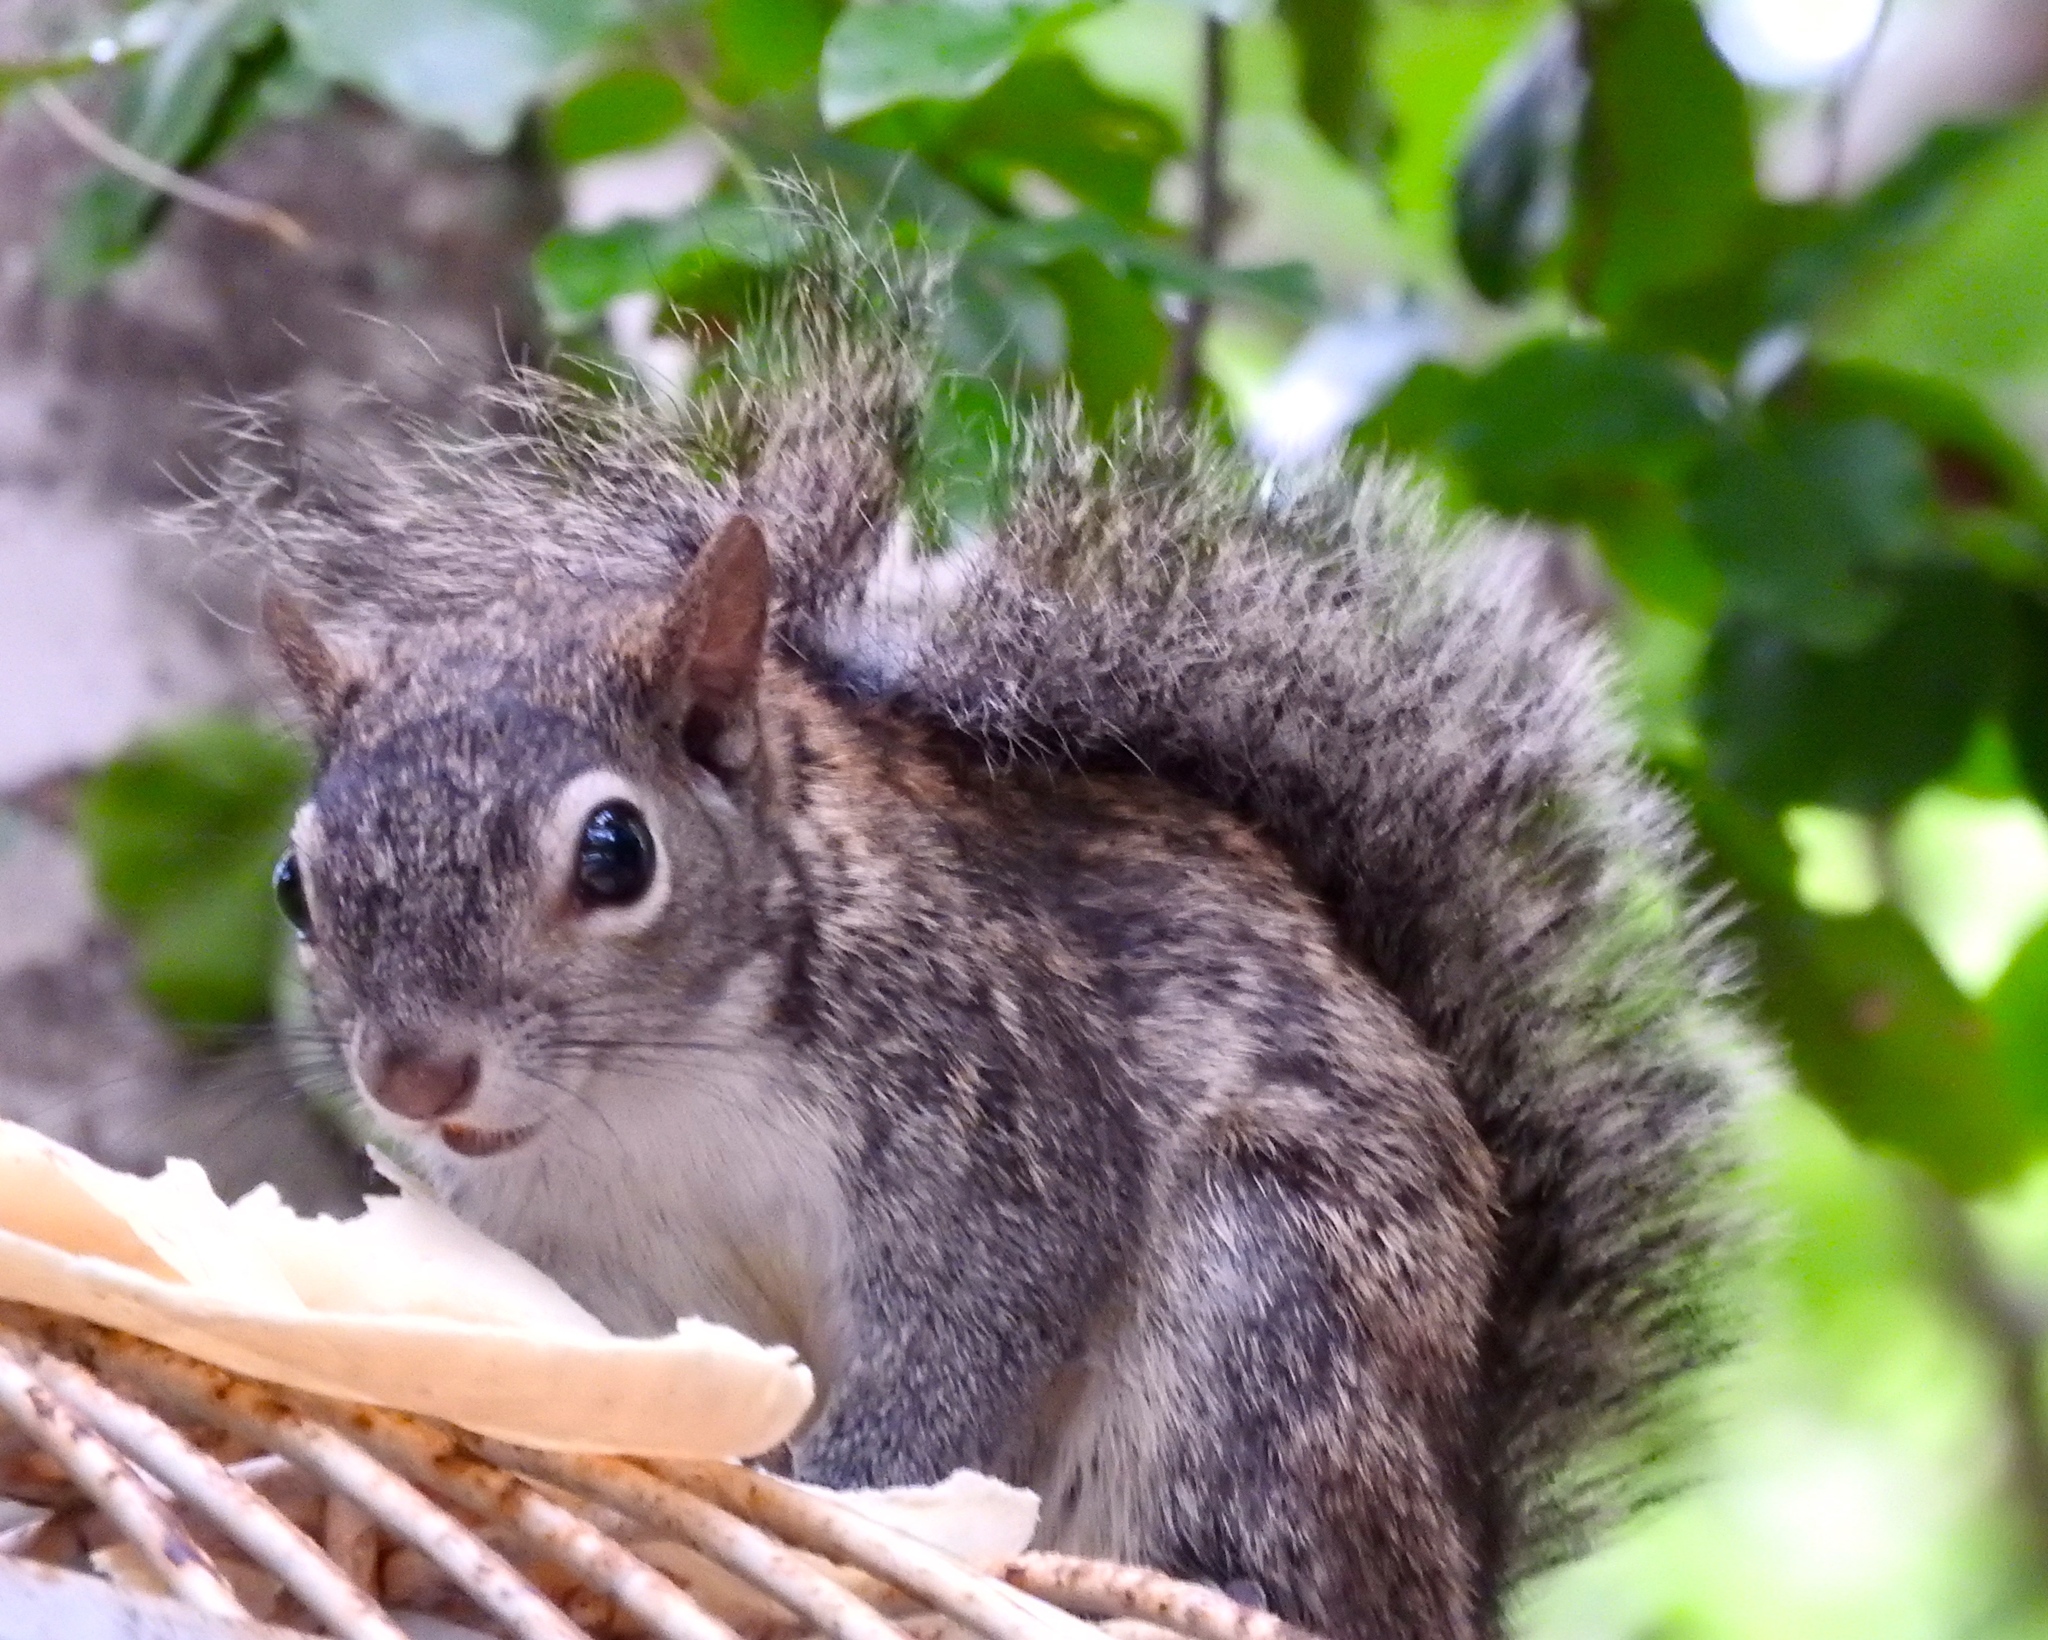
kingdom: Animalia
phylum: Chordata
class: Mammalia
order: Rodentia
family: Sciuridae
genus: Sciurus
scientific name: Sciurus colliaei
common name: Collie's squirrel
